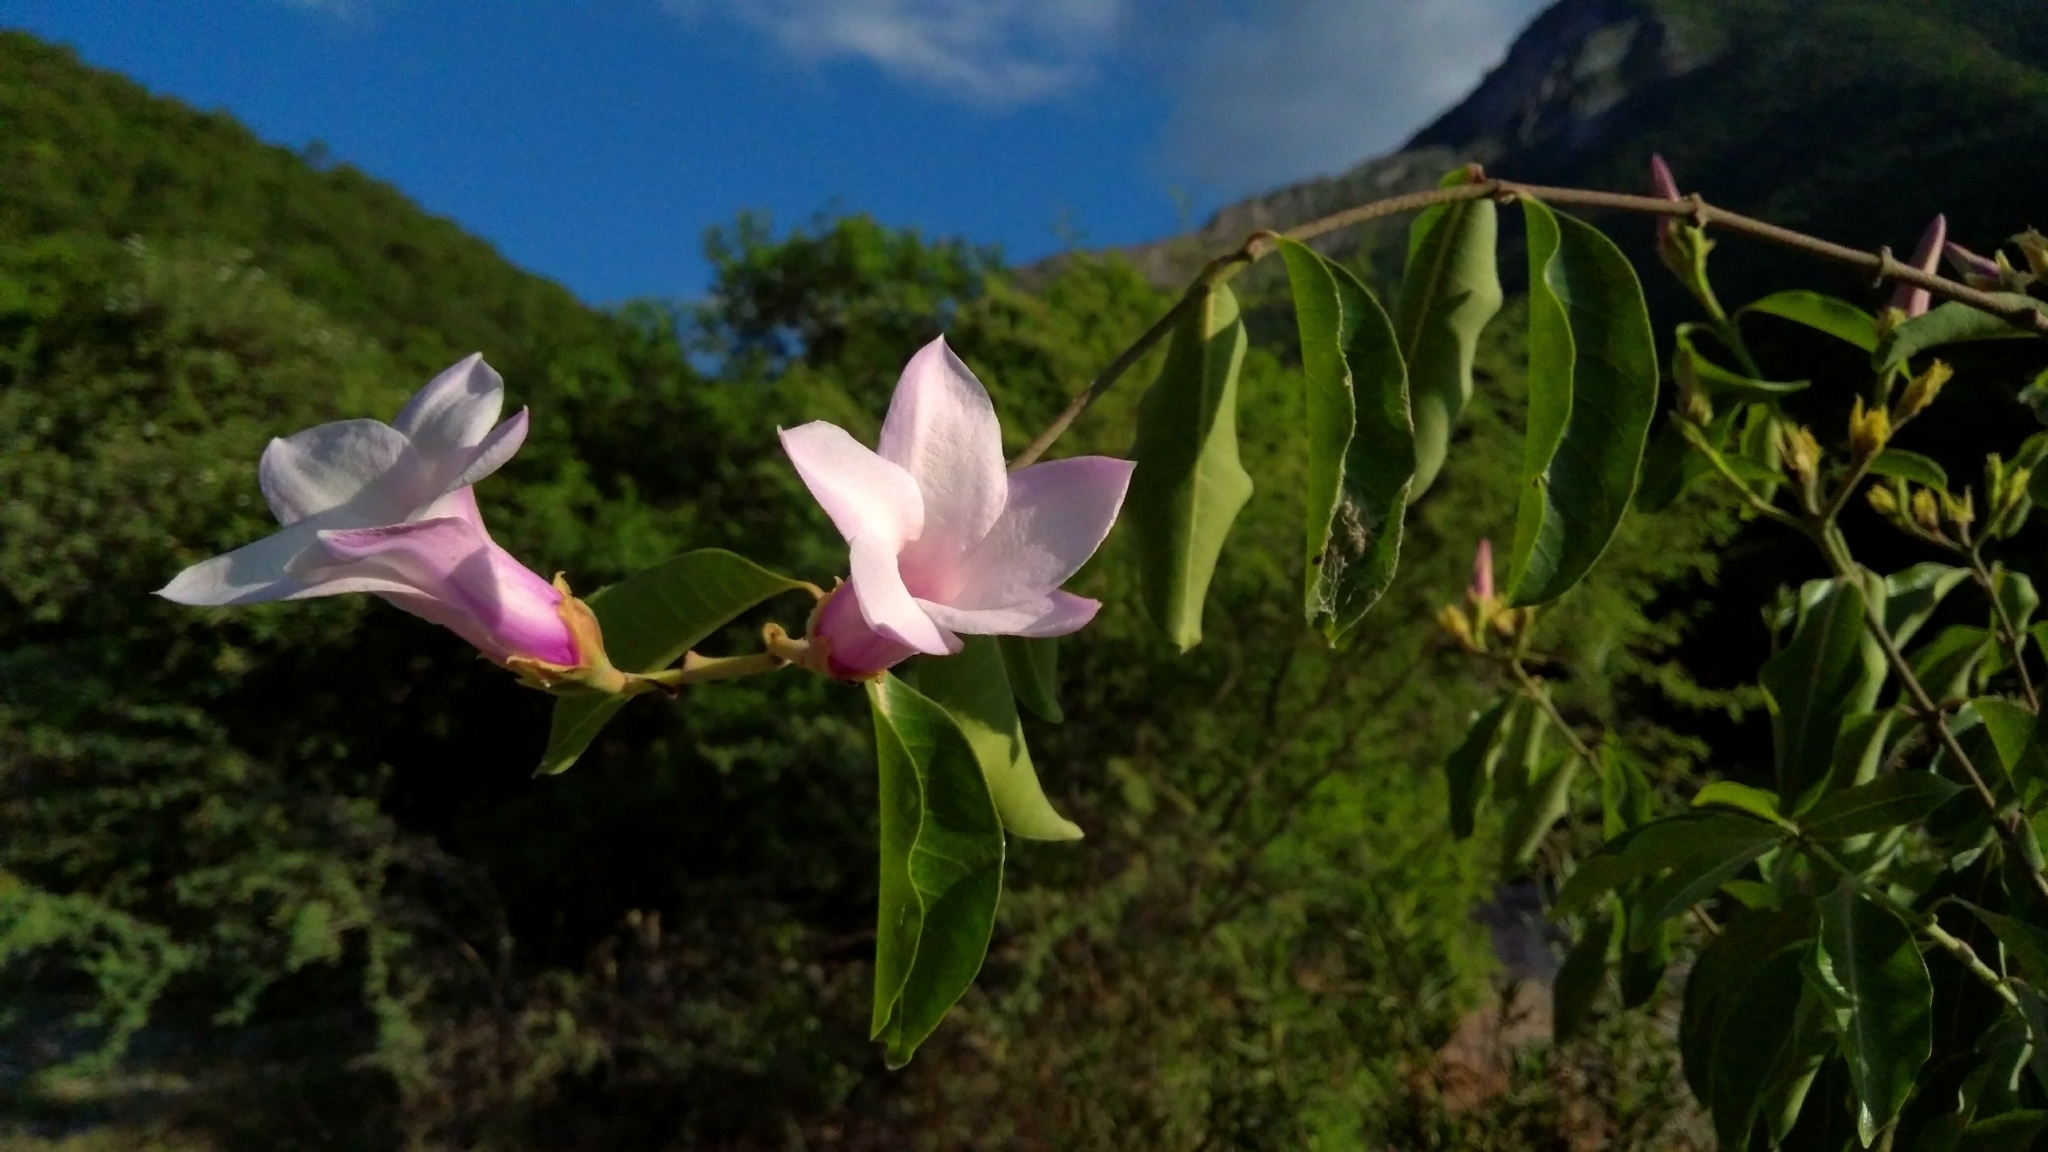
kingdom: Plantae
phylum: Tracheophyta
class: Magnoliopsida
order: Gentianales
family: Apocynaceae
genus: Cryptostegia
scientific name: Cryptostegia grandiflora
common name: Palay rubbervine
